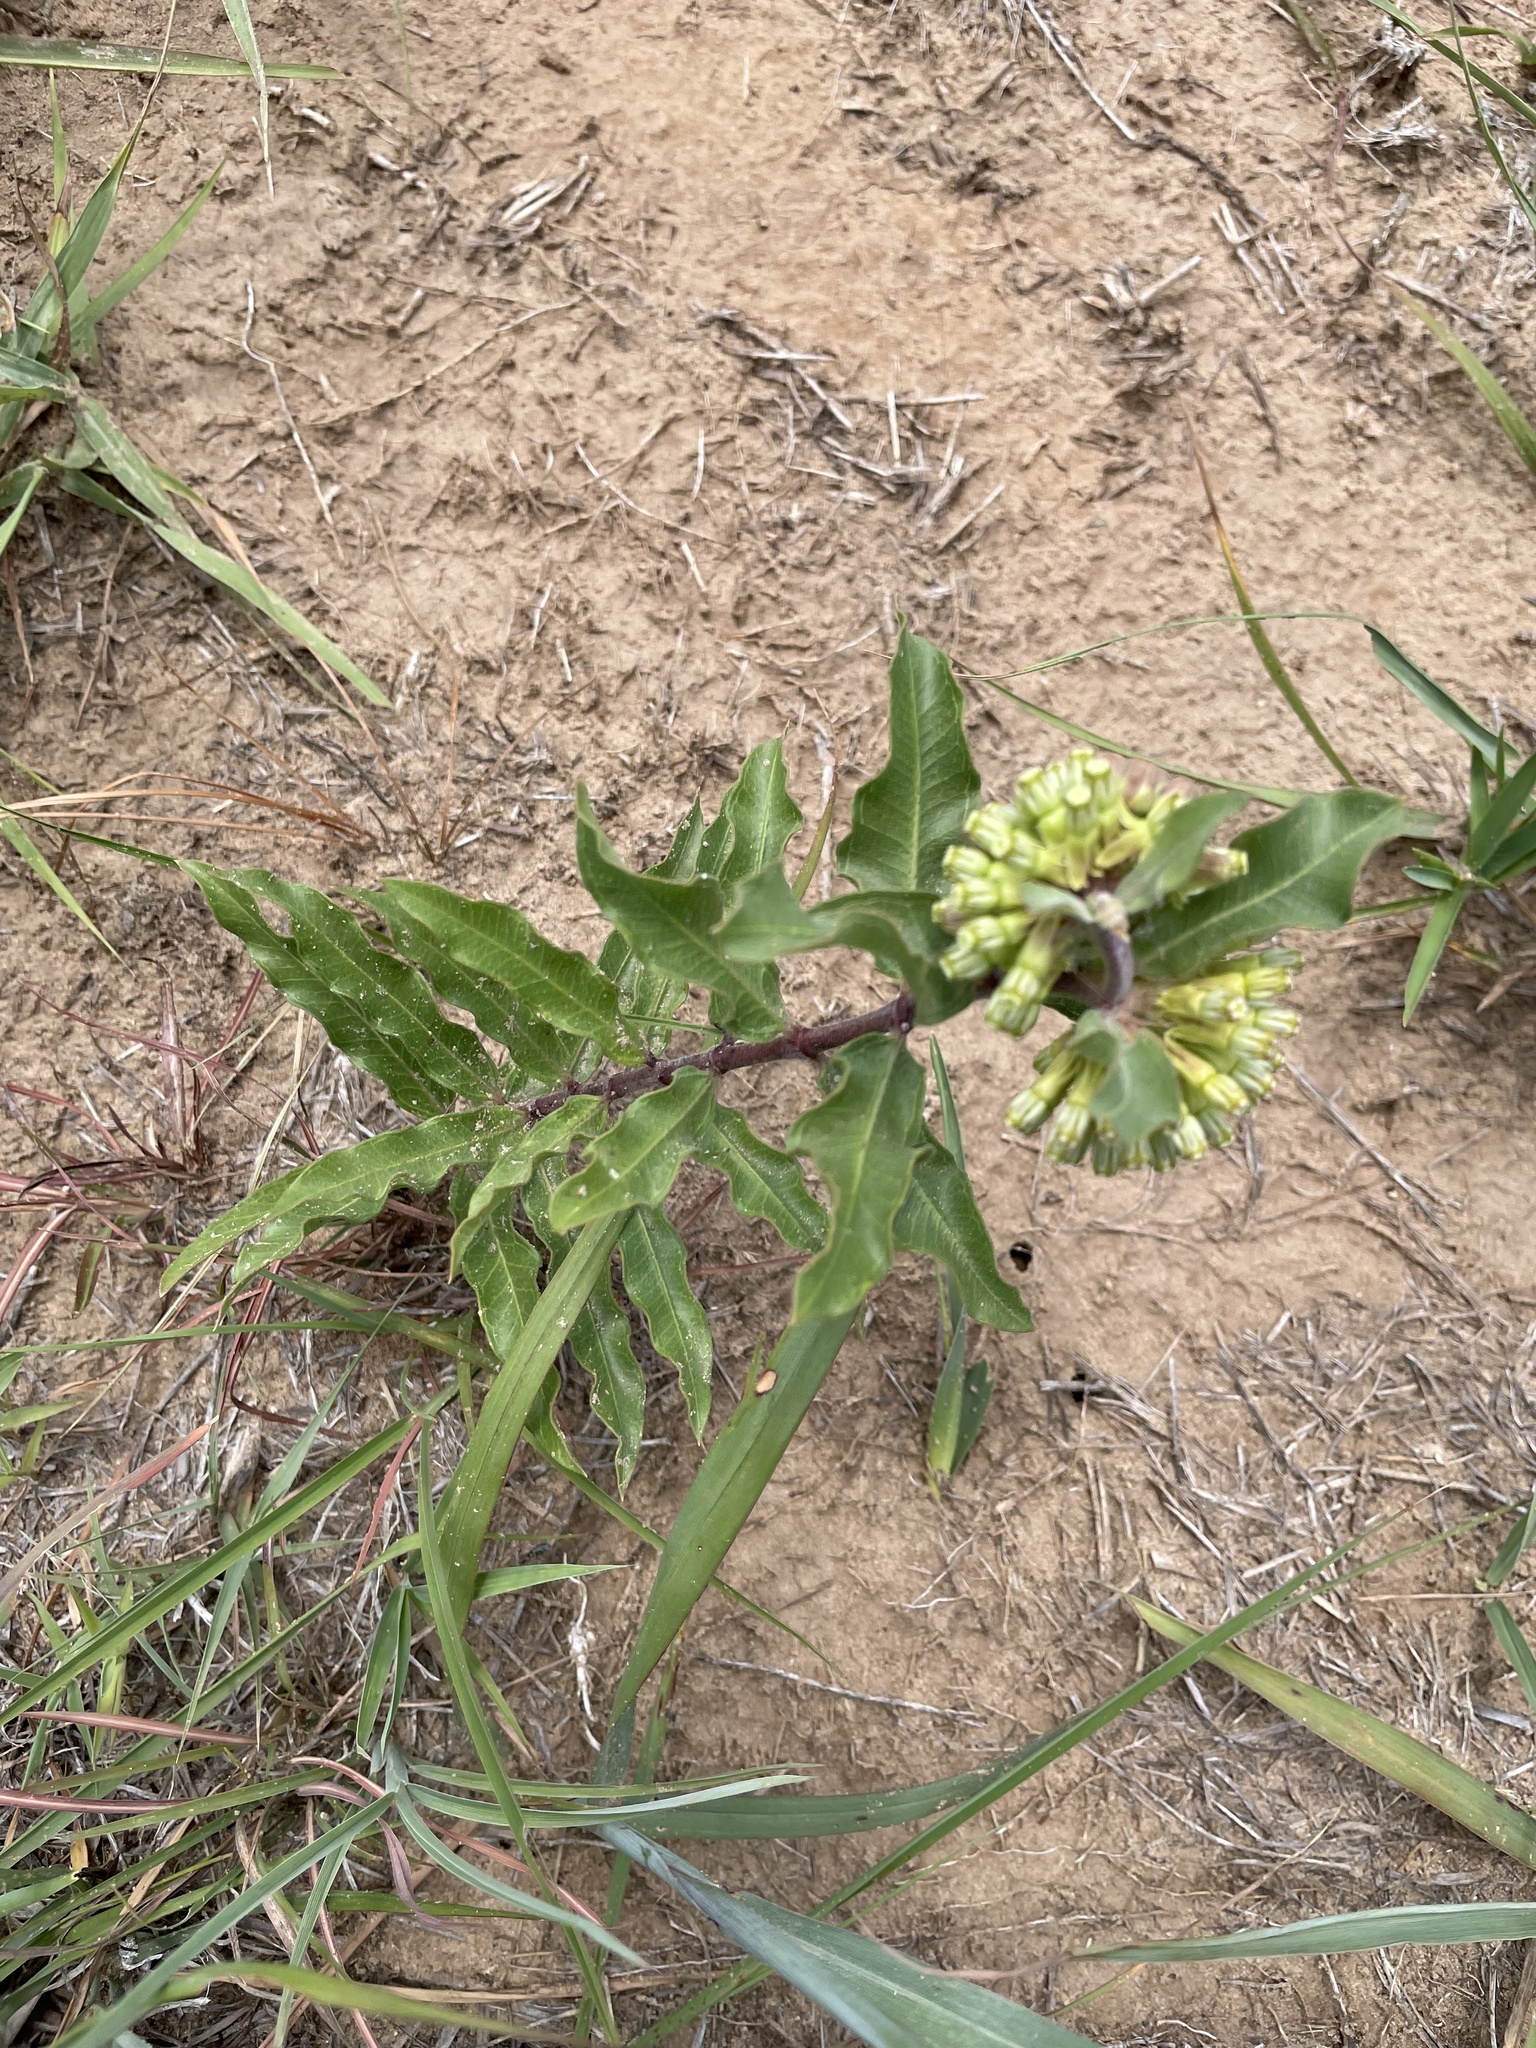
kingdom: Plantae
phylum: Tracheophyta
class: Magnoliopsida
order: Gentianales
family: Apocynaceae
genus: Asclepias
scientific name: Asclepias viridiflora
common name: Green comet milkweed
